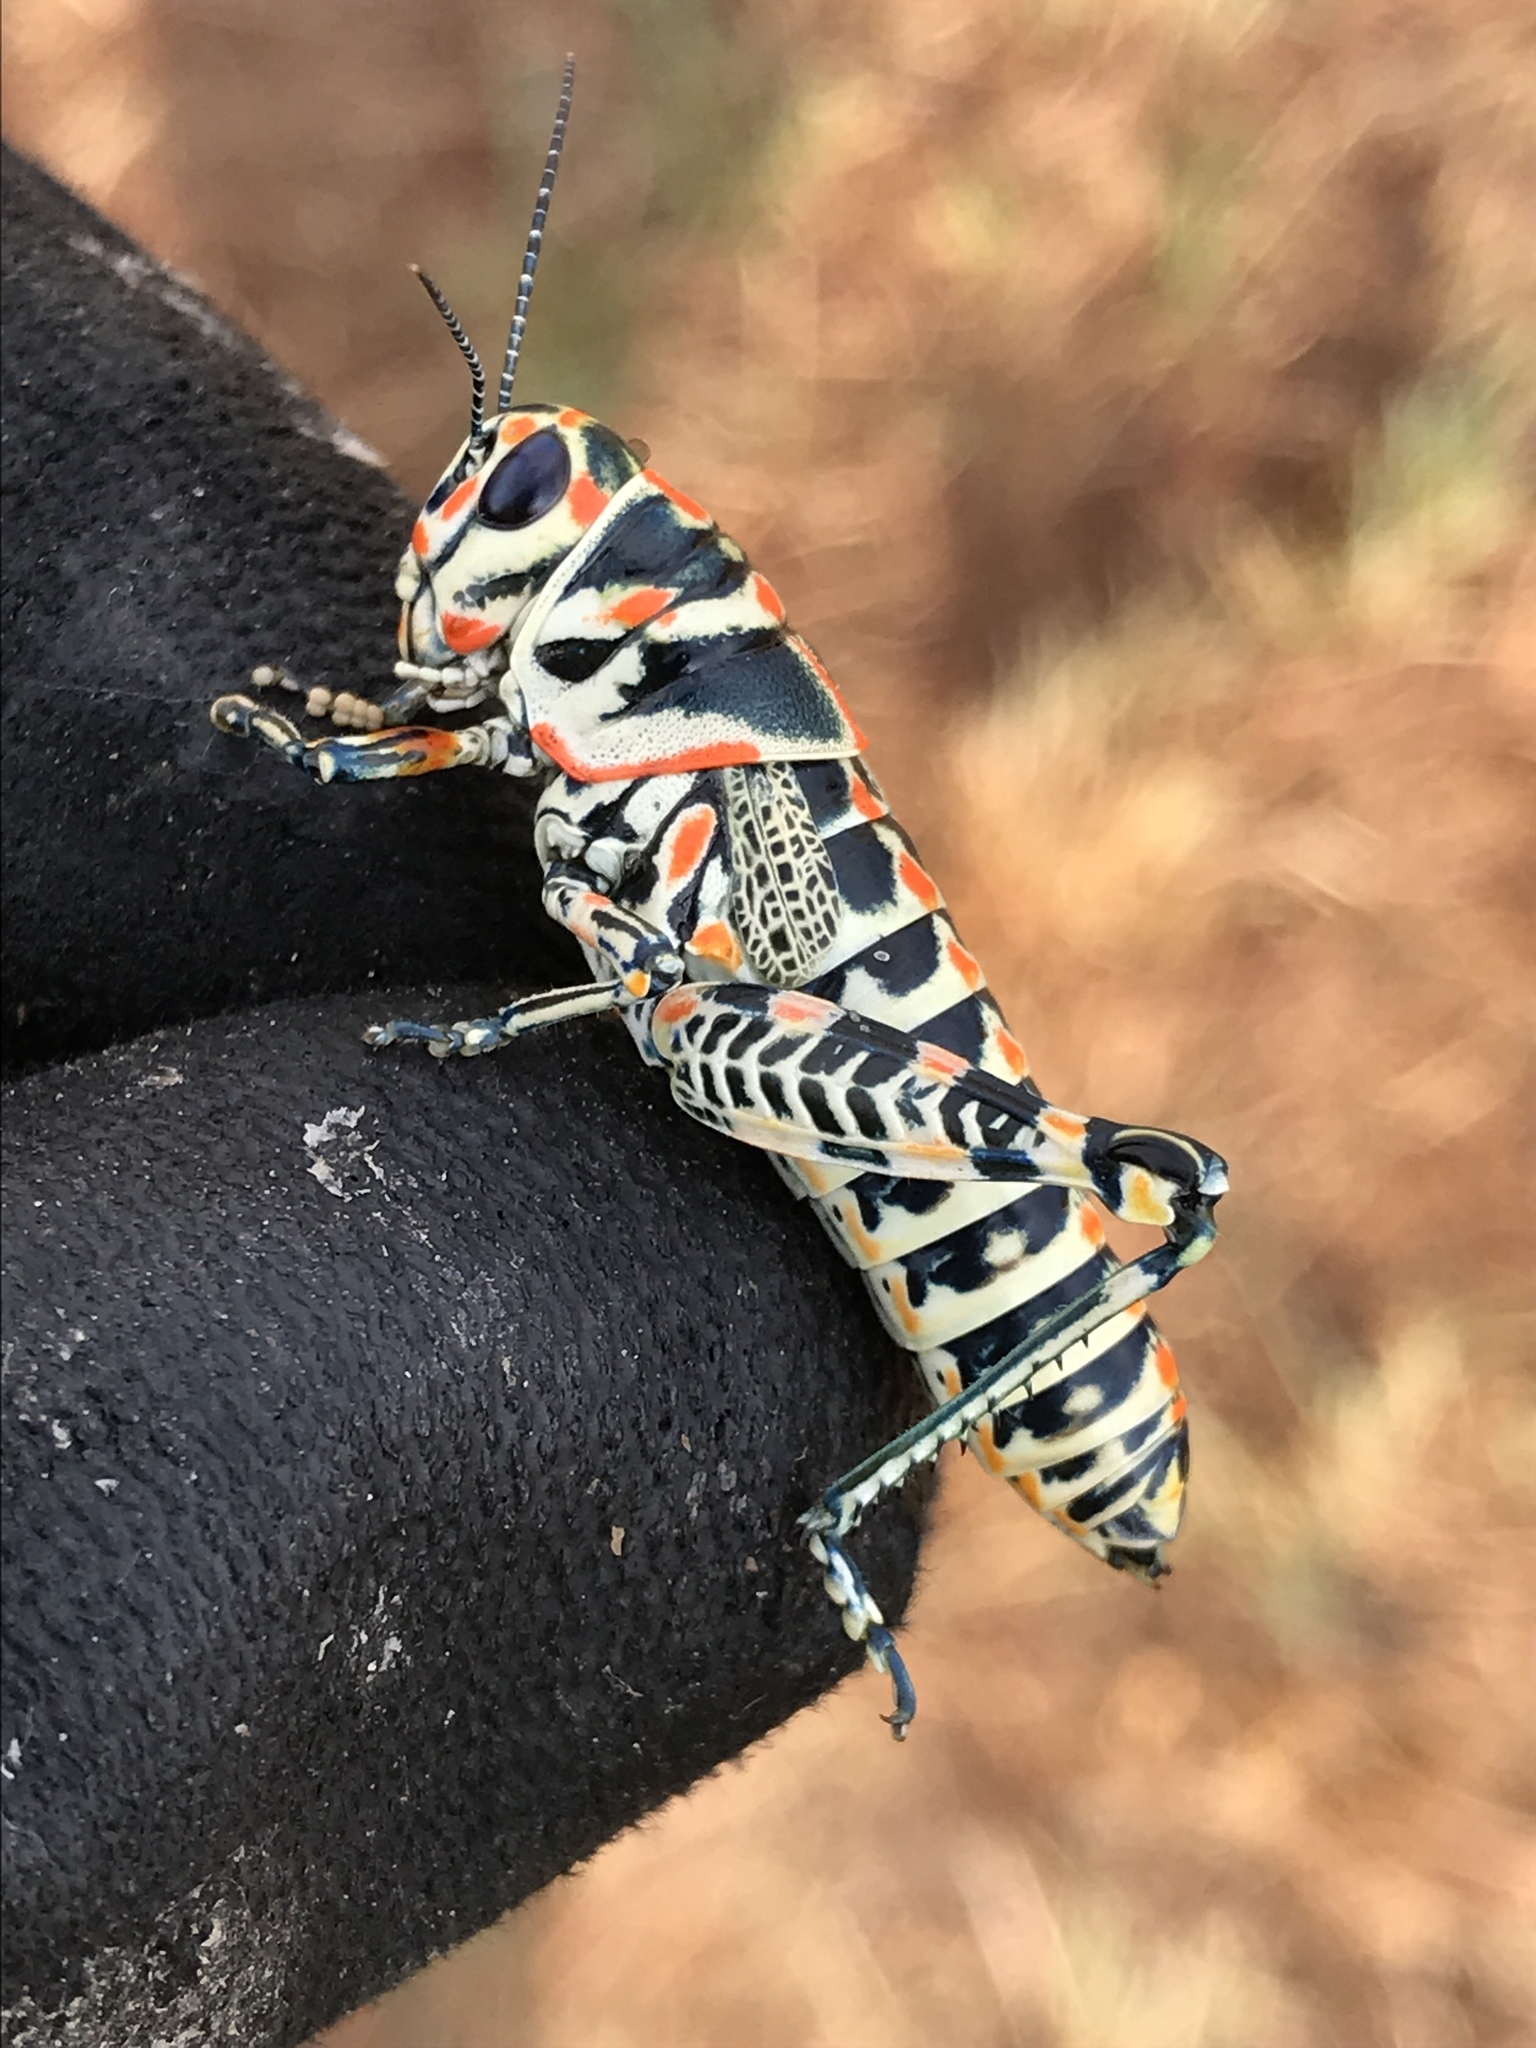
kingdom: Animalia
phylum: Arthropoda
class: Insecta
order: Orthoptera
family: Acrididae
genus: Dactylotum
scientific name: Dactylotum bicolor
